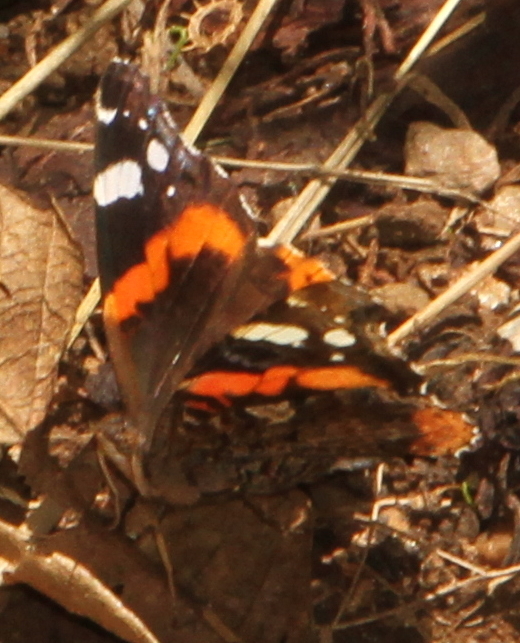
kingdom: Animalia
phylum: Arthropoda
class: Insecta
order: Lepidoptera
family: Nymphalidae
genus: Vanessa
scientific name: Vanessa atalanta
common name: Red admiral
